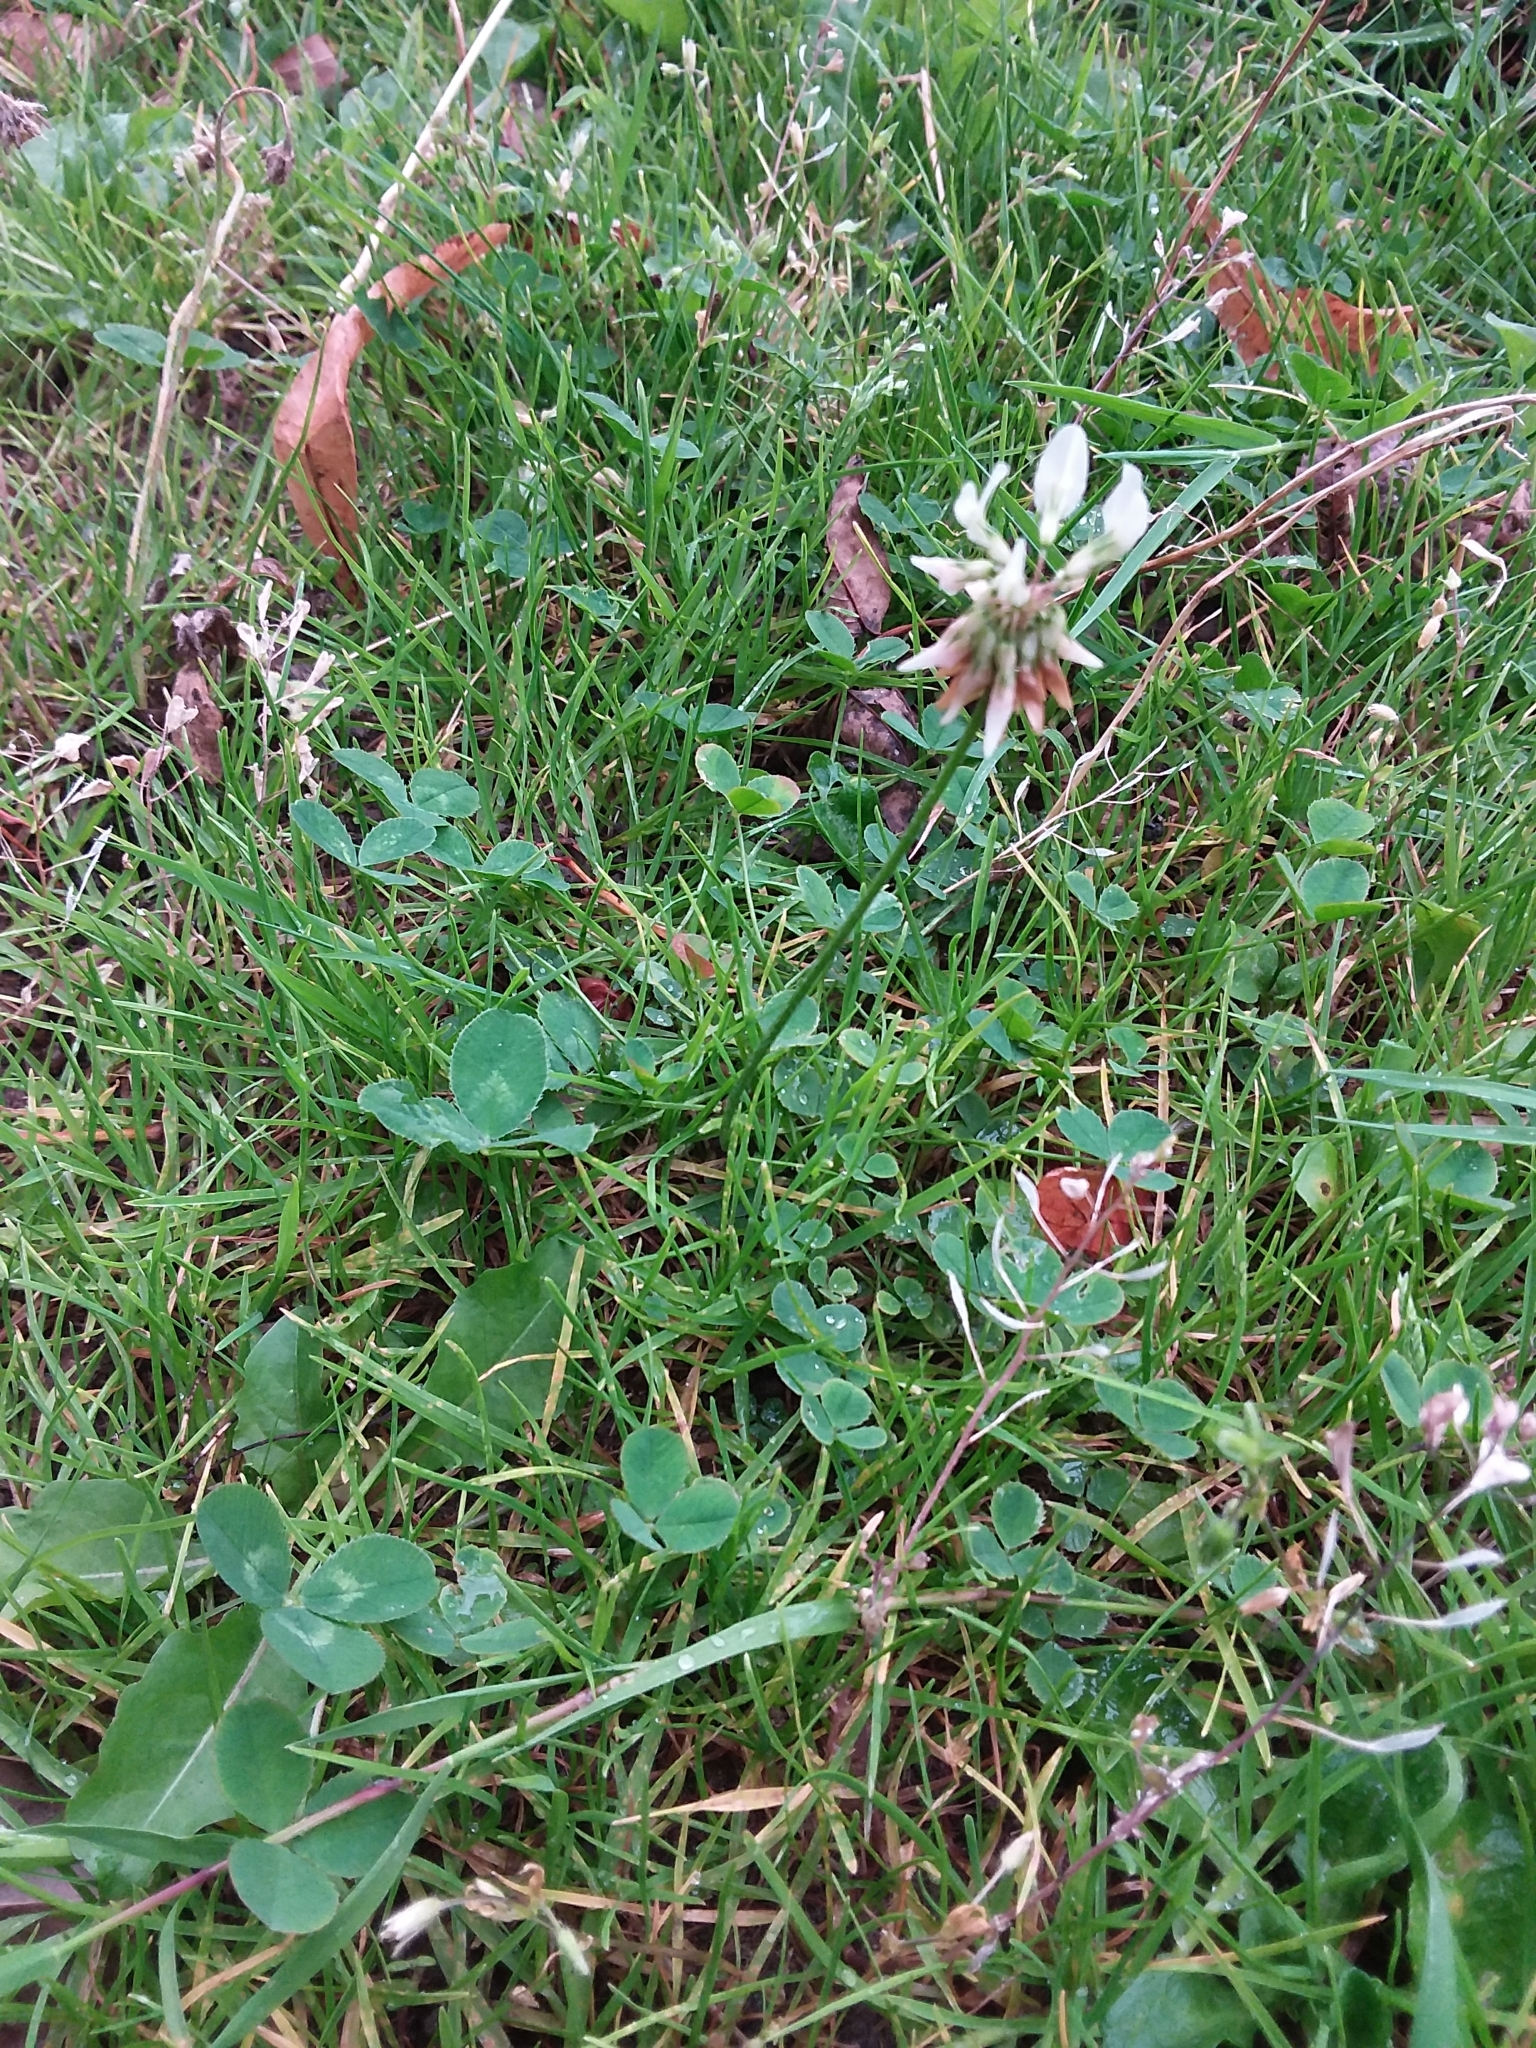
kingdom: Plantae
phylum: Tracheophyta
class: Magnoliopsida
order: Fabales
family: Fabaceae
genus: Trifolium
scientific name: Trifolium repens
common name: White clover
